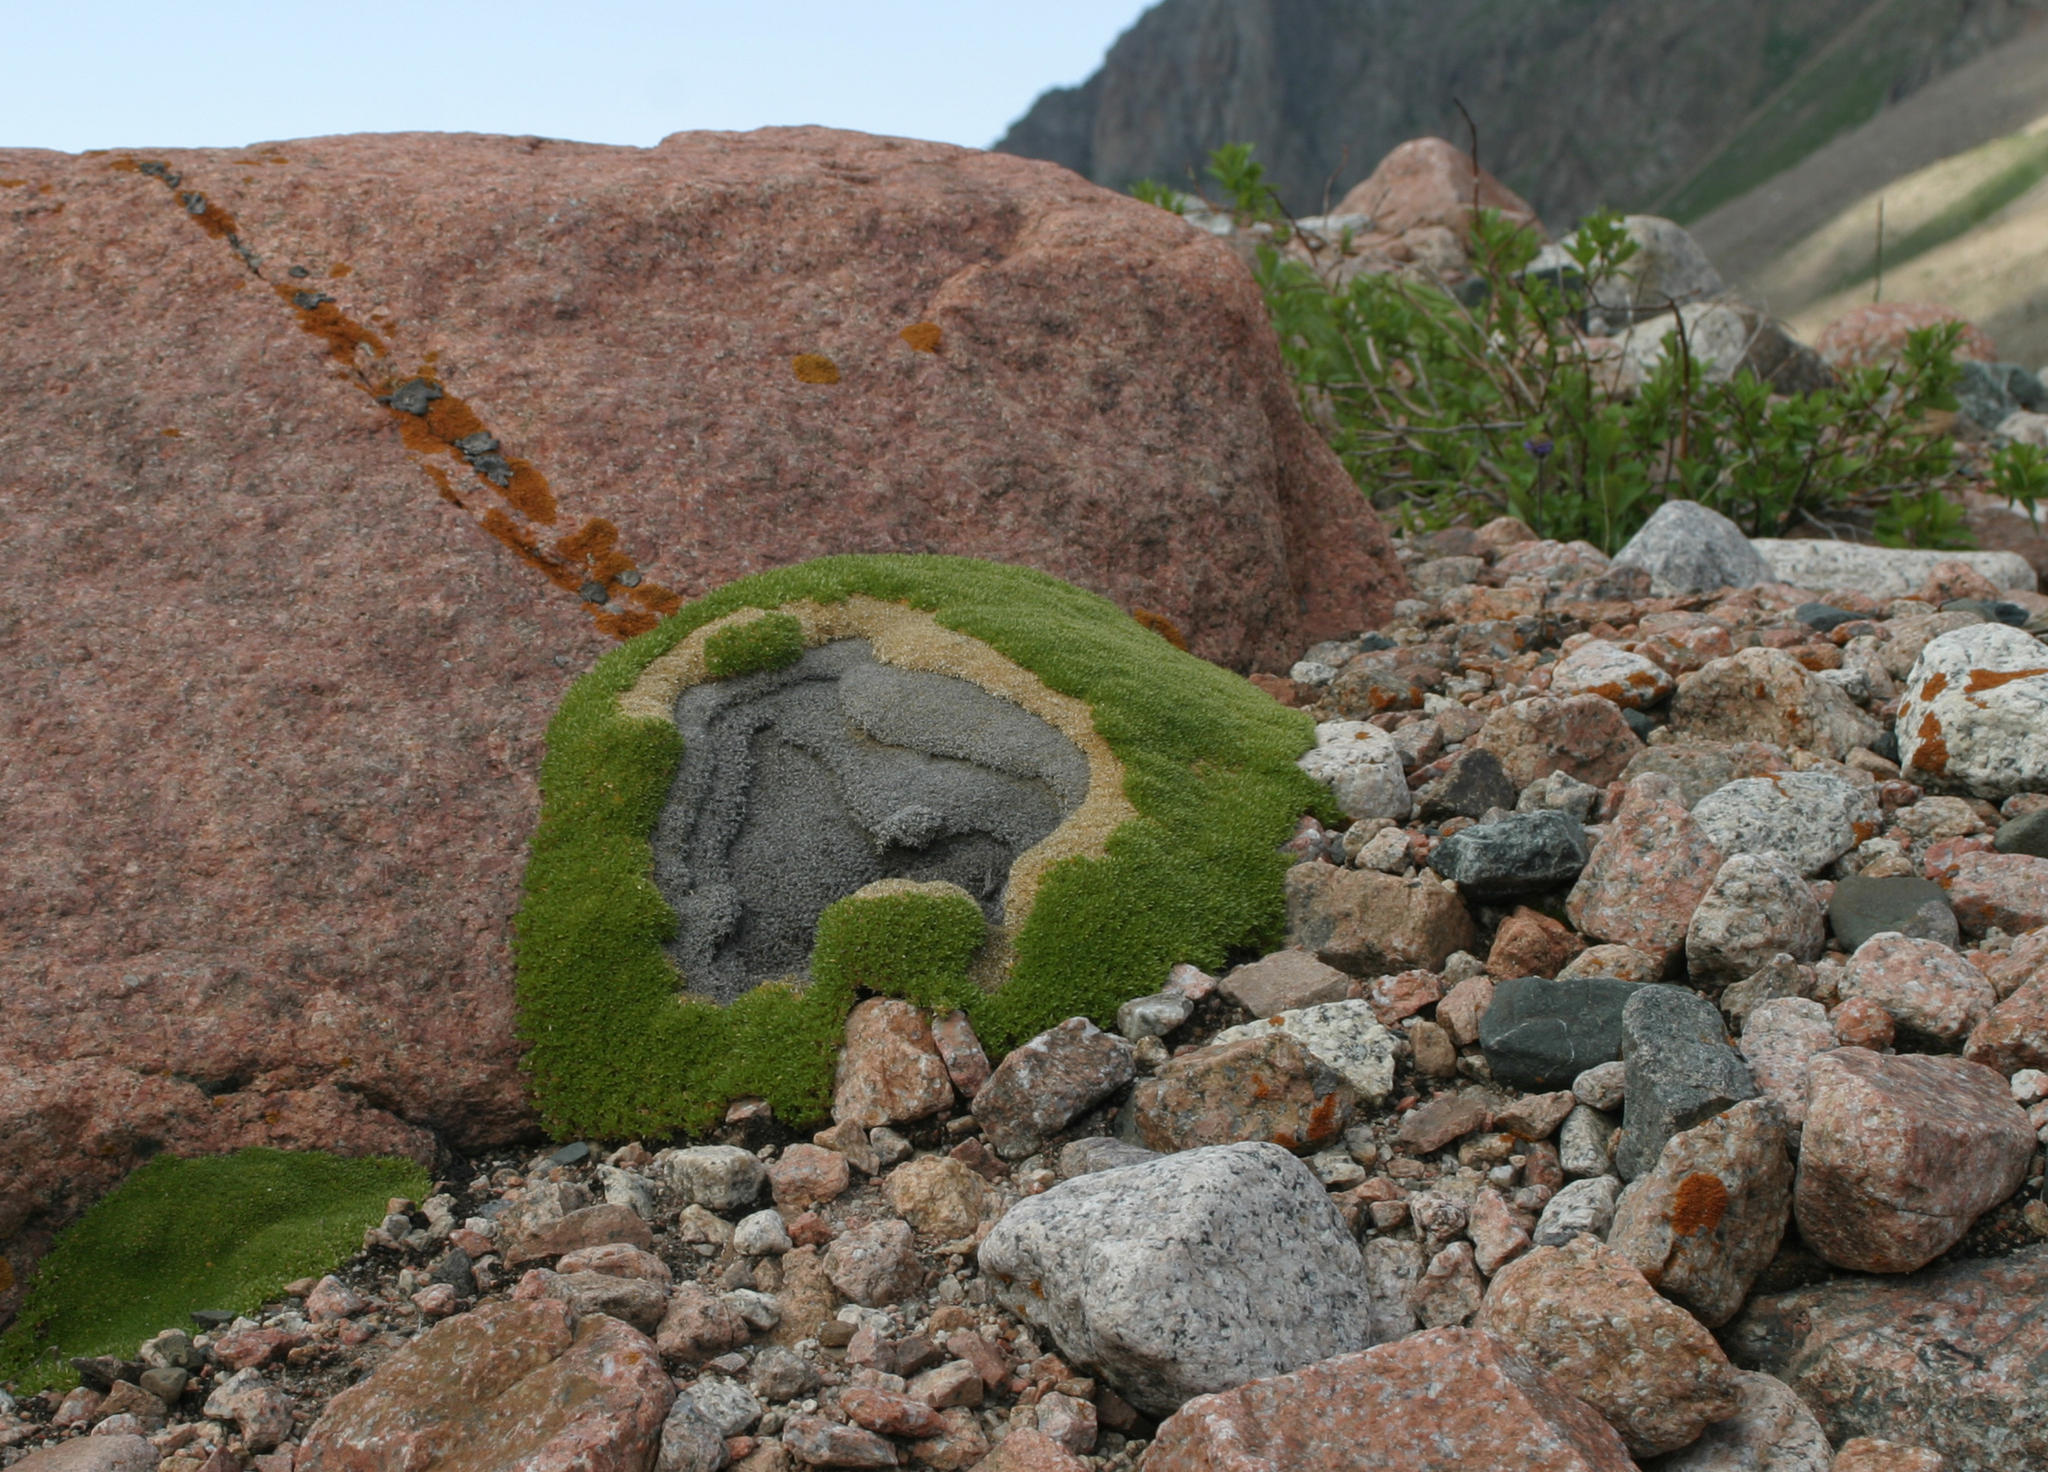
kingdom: Plantae
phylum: Tracheophyta
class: Magnoliopsida
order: Caryophyllales
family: Caryophyllaceae
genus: Thylacospermum
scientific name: Thylacospermum caespitosum
